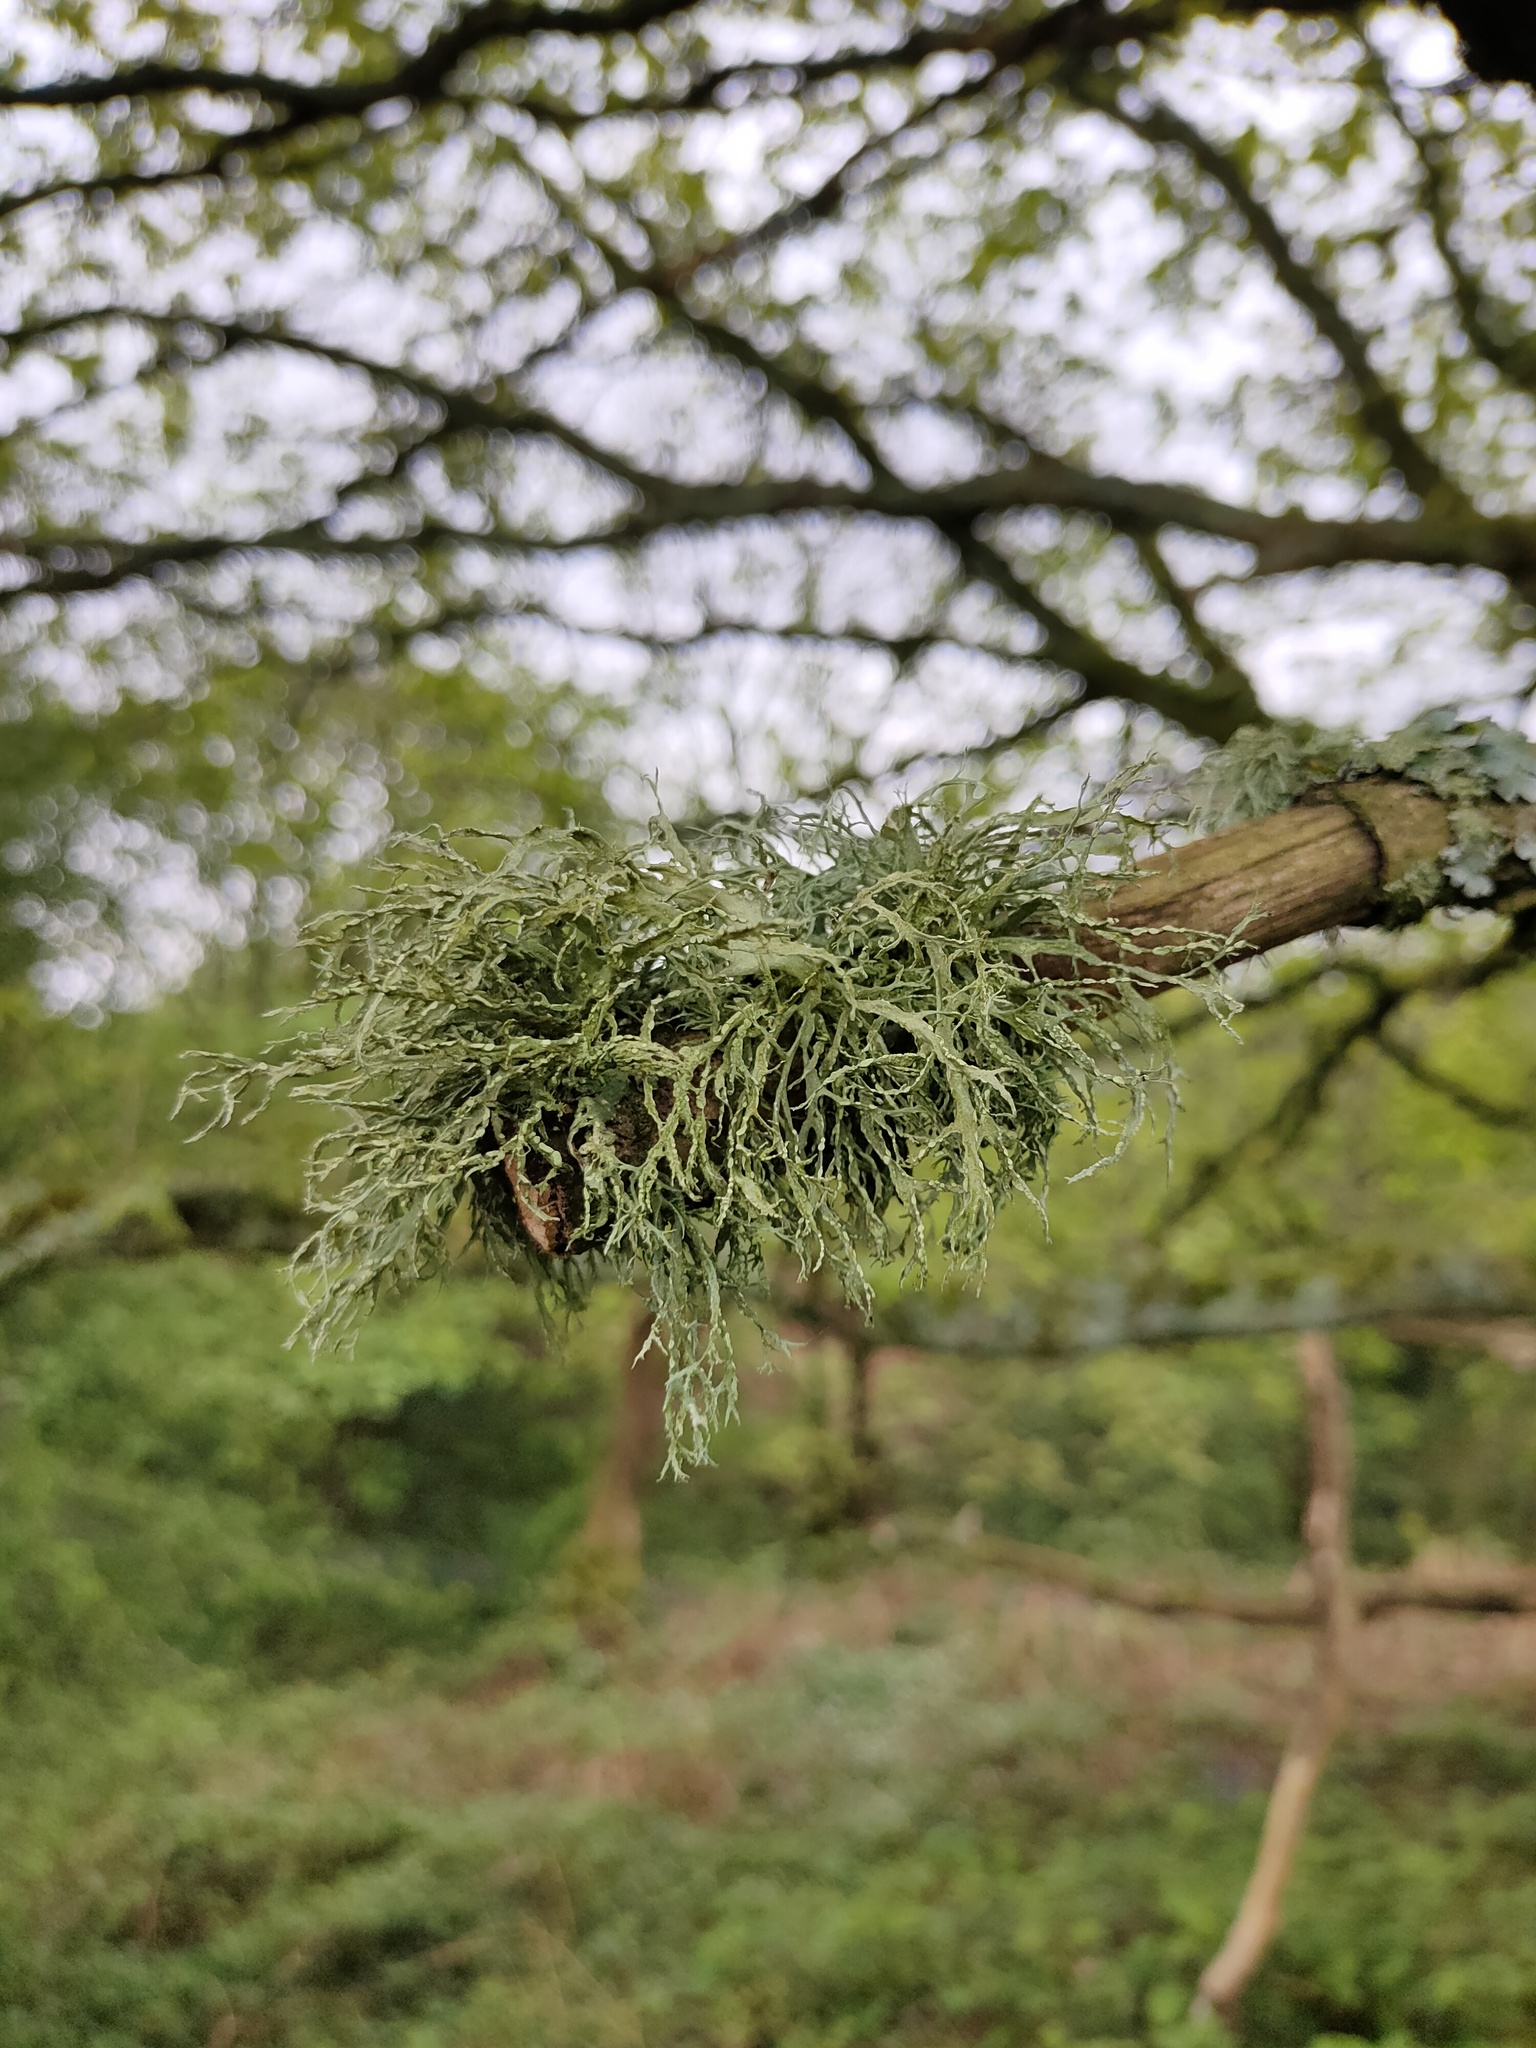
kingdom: Fungi
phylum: Ascomycota
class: Lecanoromycetes
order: Lecanorales
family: Ramalinaceae
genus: Ramalina
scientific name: Ramalina farinacea
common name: Farinose cartilage lichen
